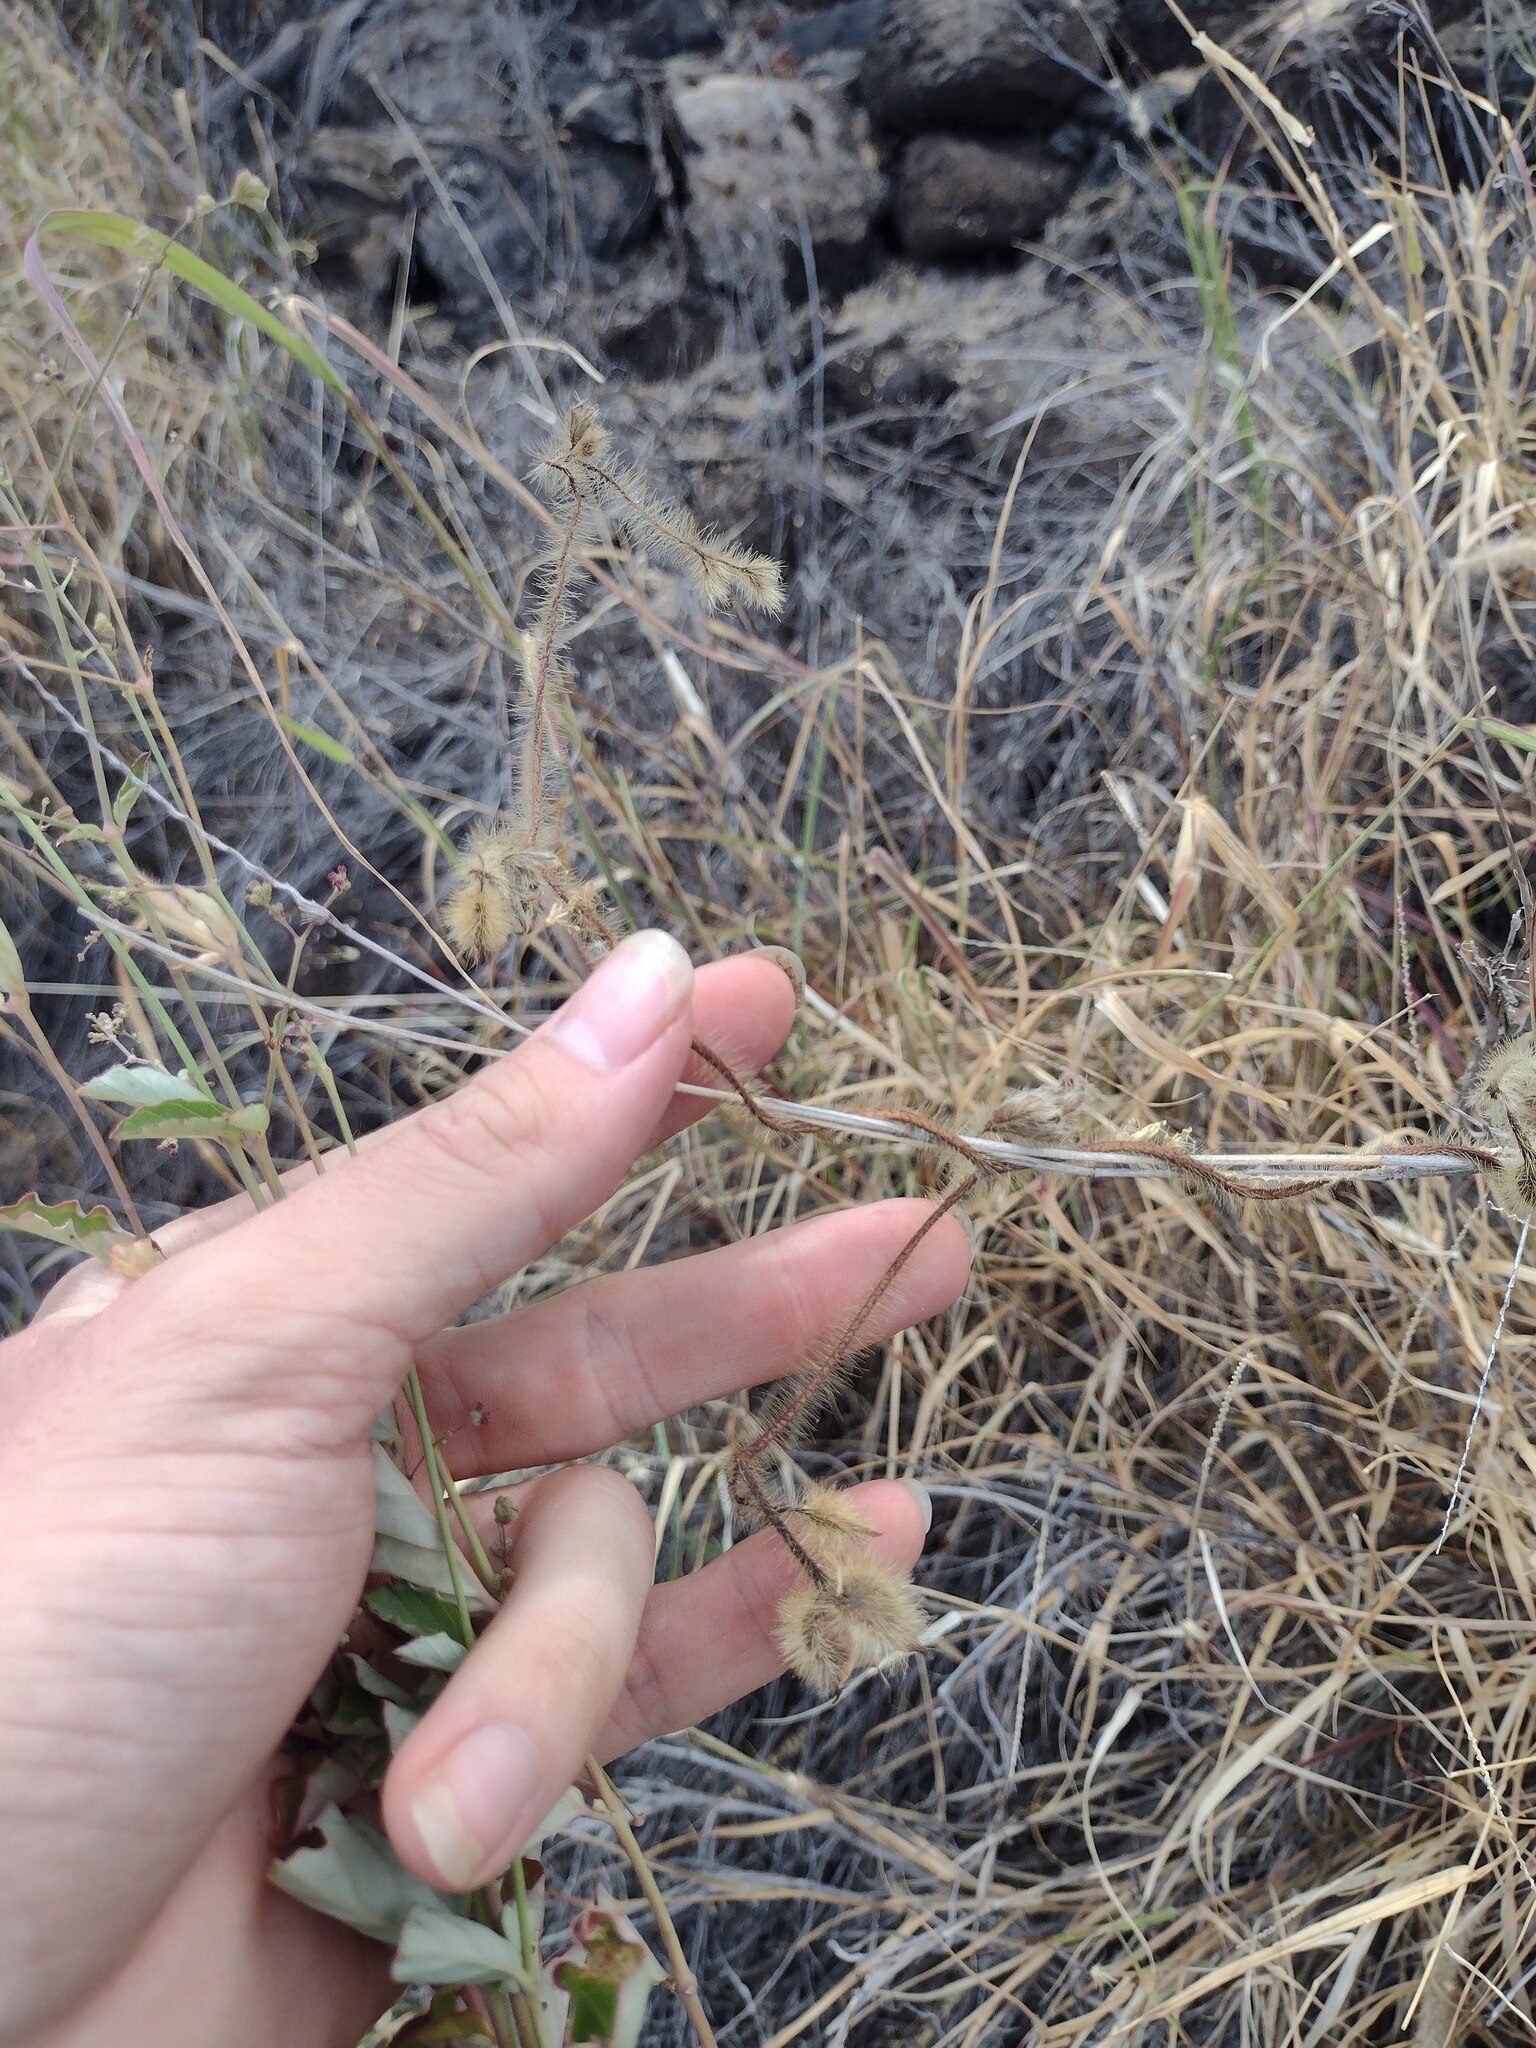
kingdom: Plantae
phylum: Tracheophyta
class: Magnoliopsida
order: Solanales
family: Convolvulaceae
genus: Distimake
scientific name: Distimake aegyptius
